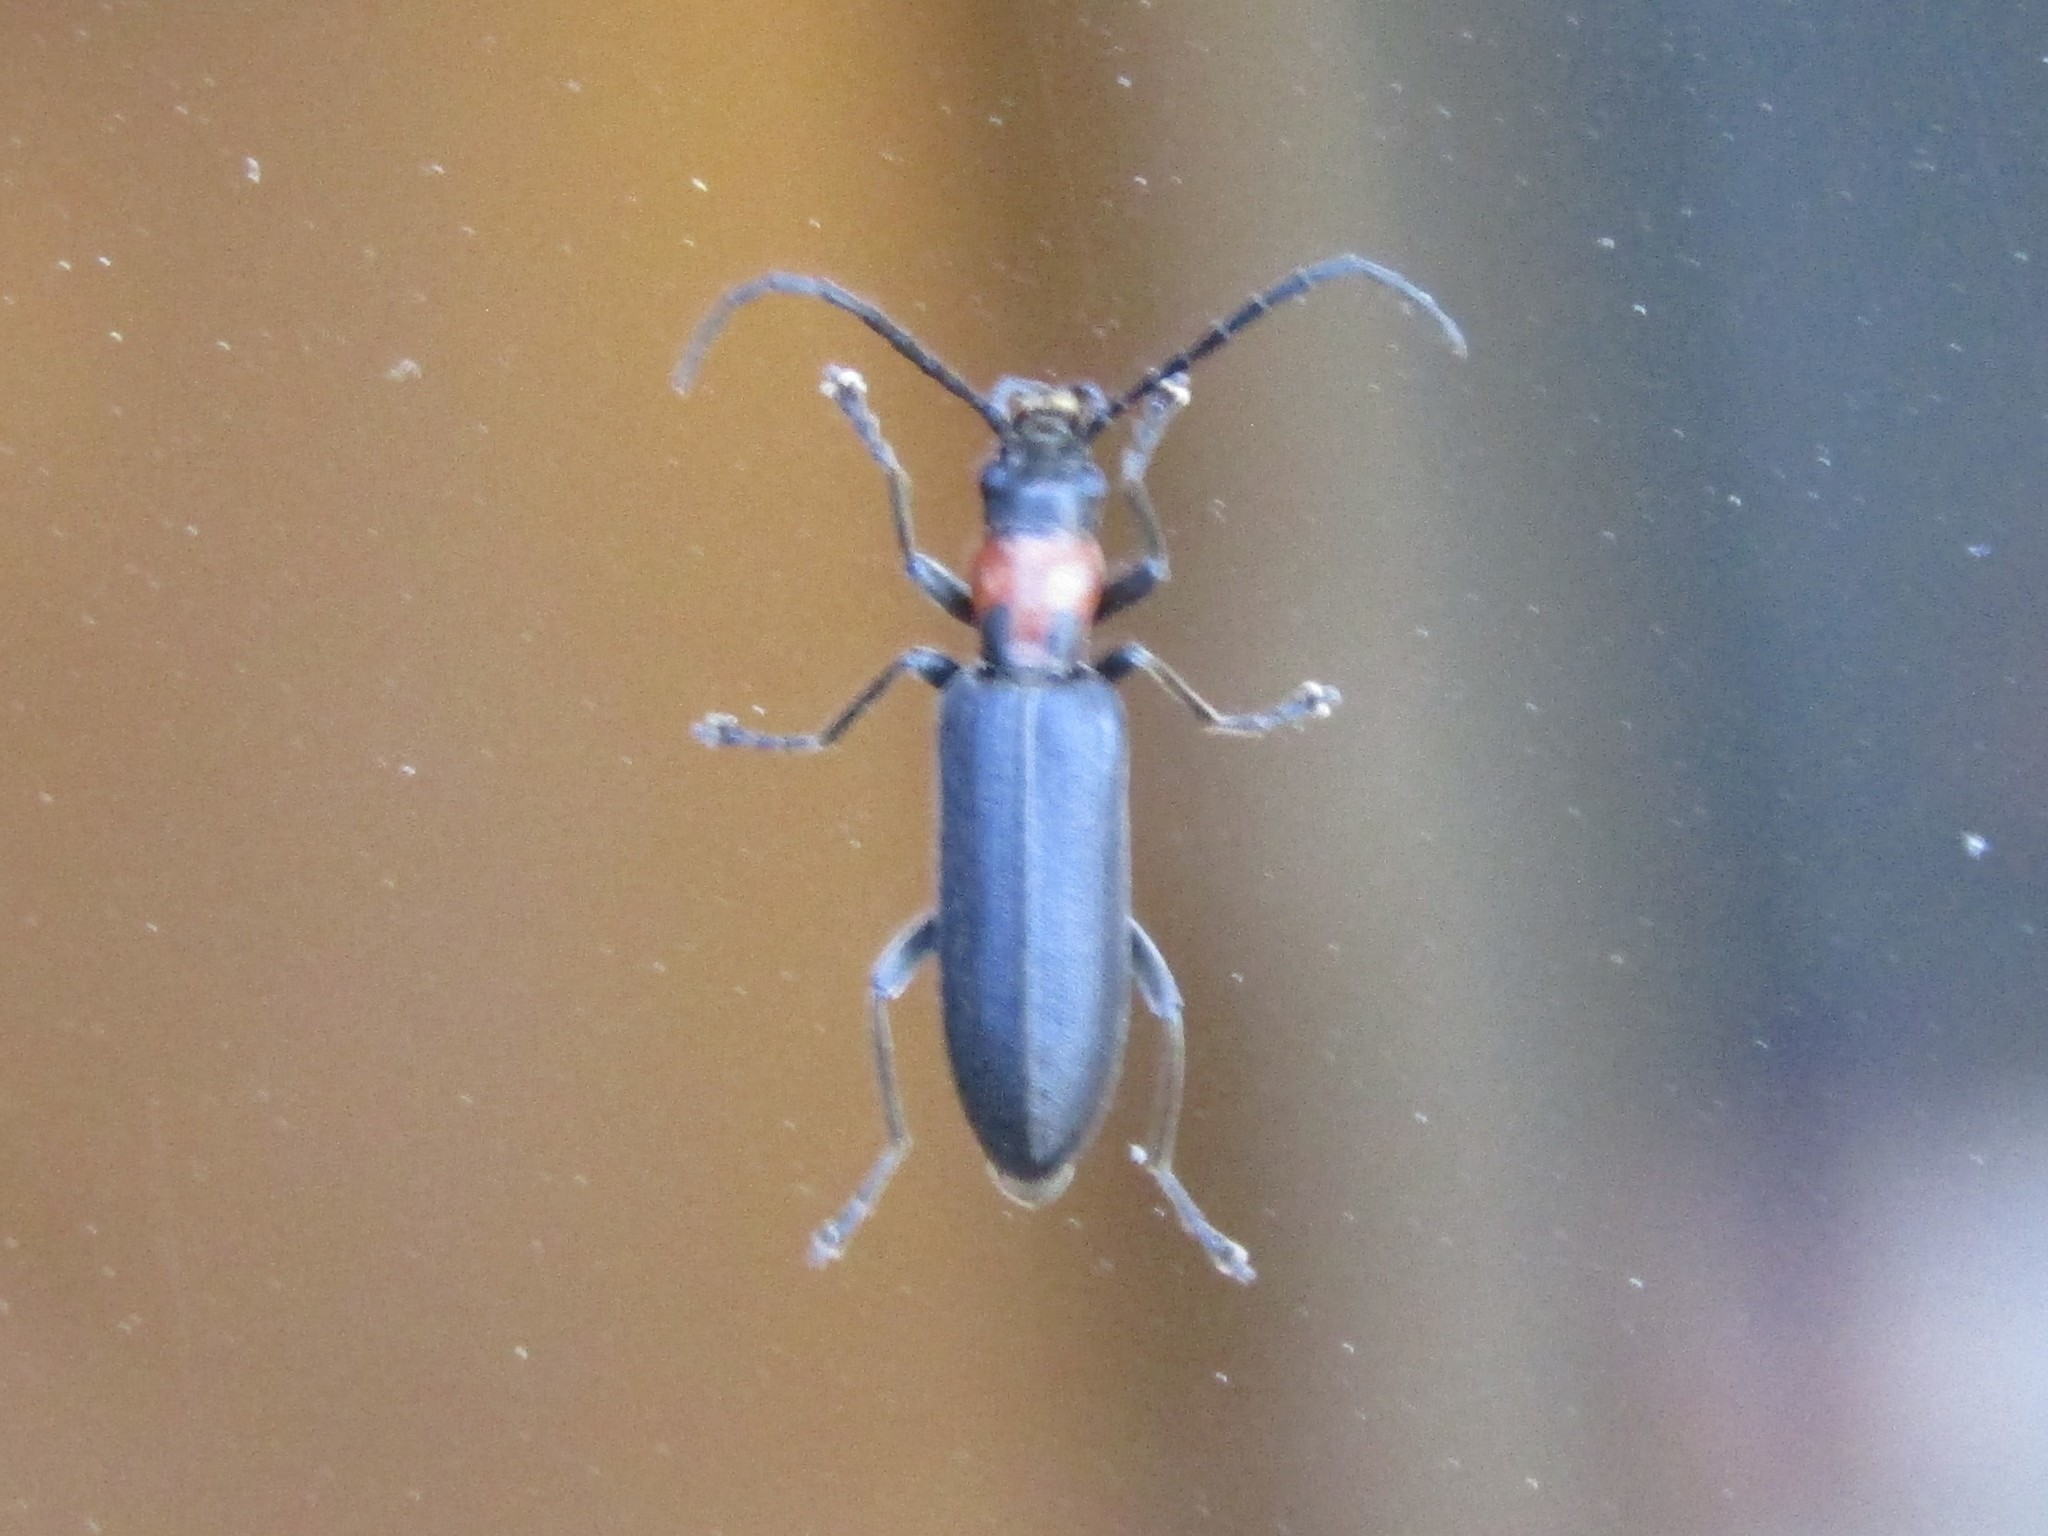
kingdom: Animalia
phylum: Arthropoda
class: Insecta
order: Coleoptera
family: Oedemeridae
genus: Oxycopis
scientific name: Oxycopis notoxoides
